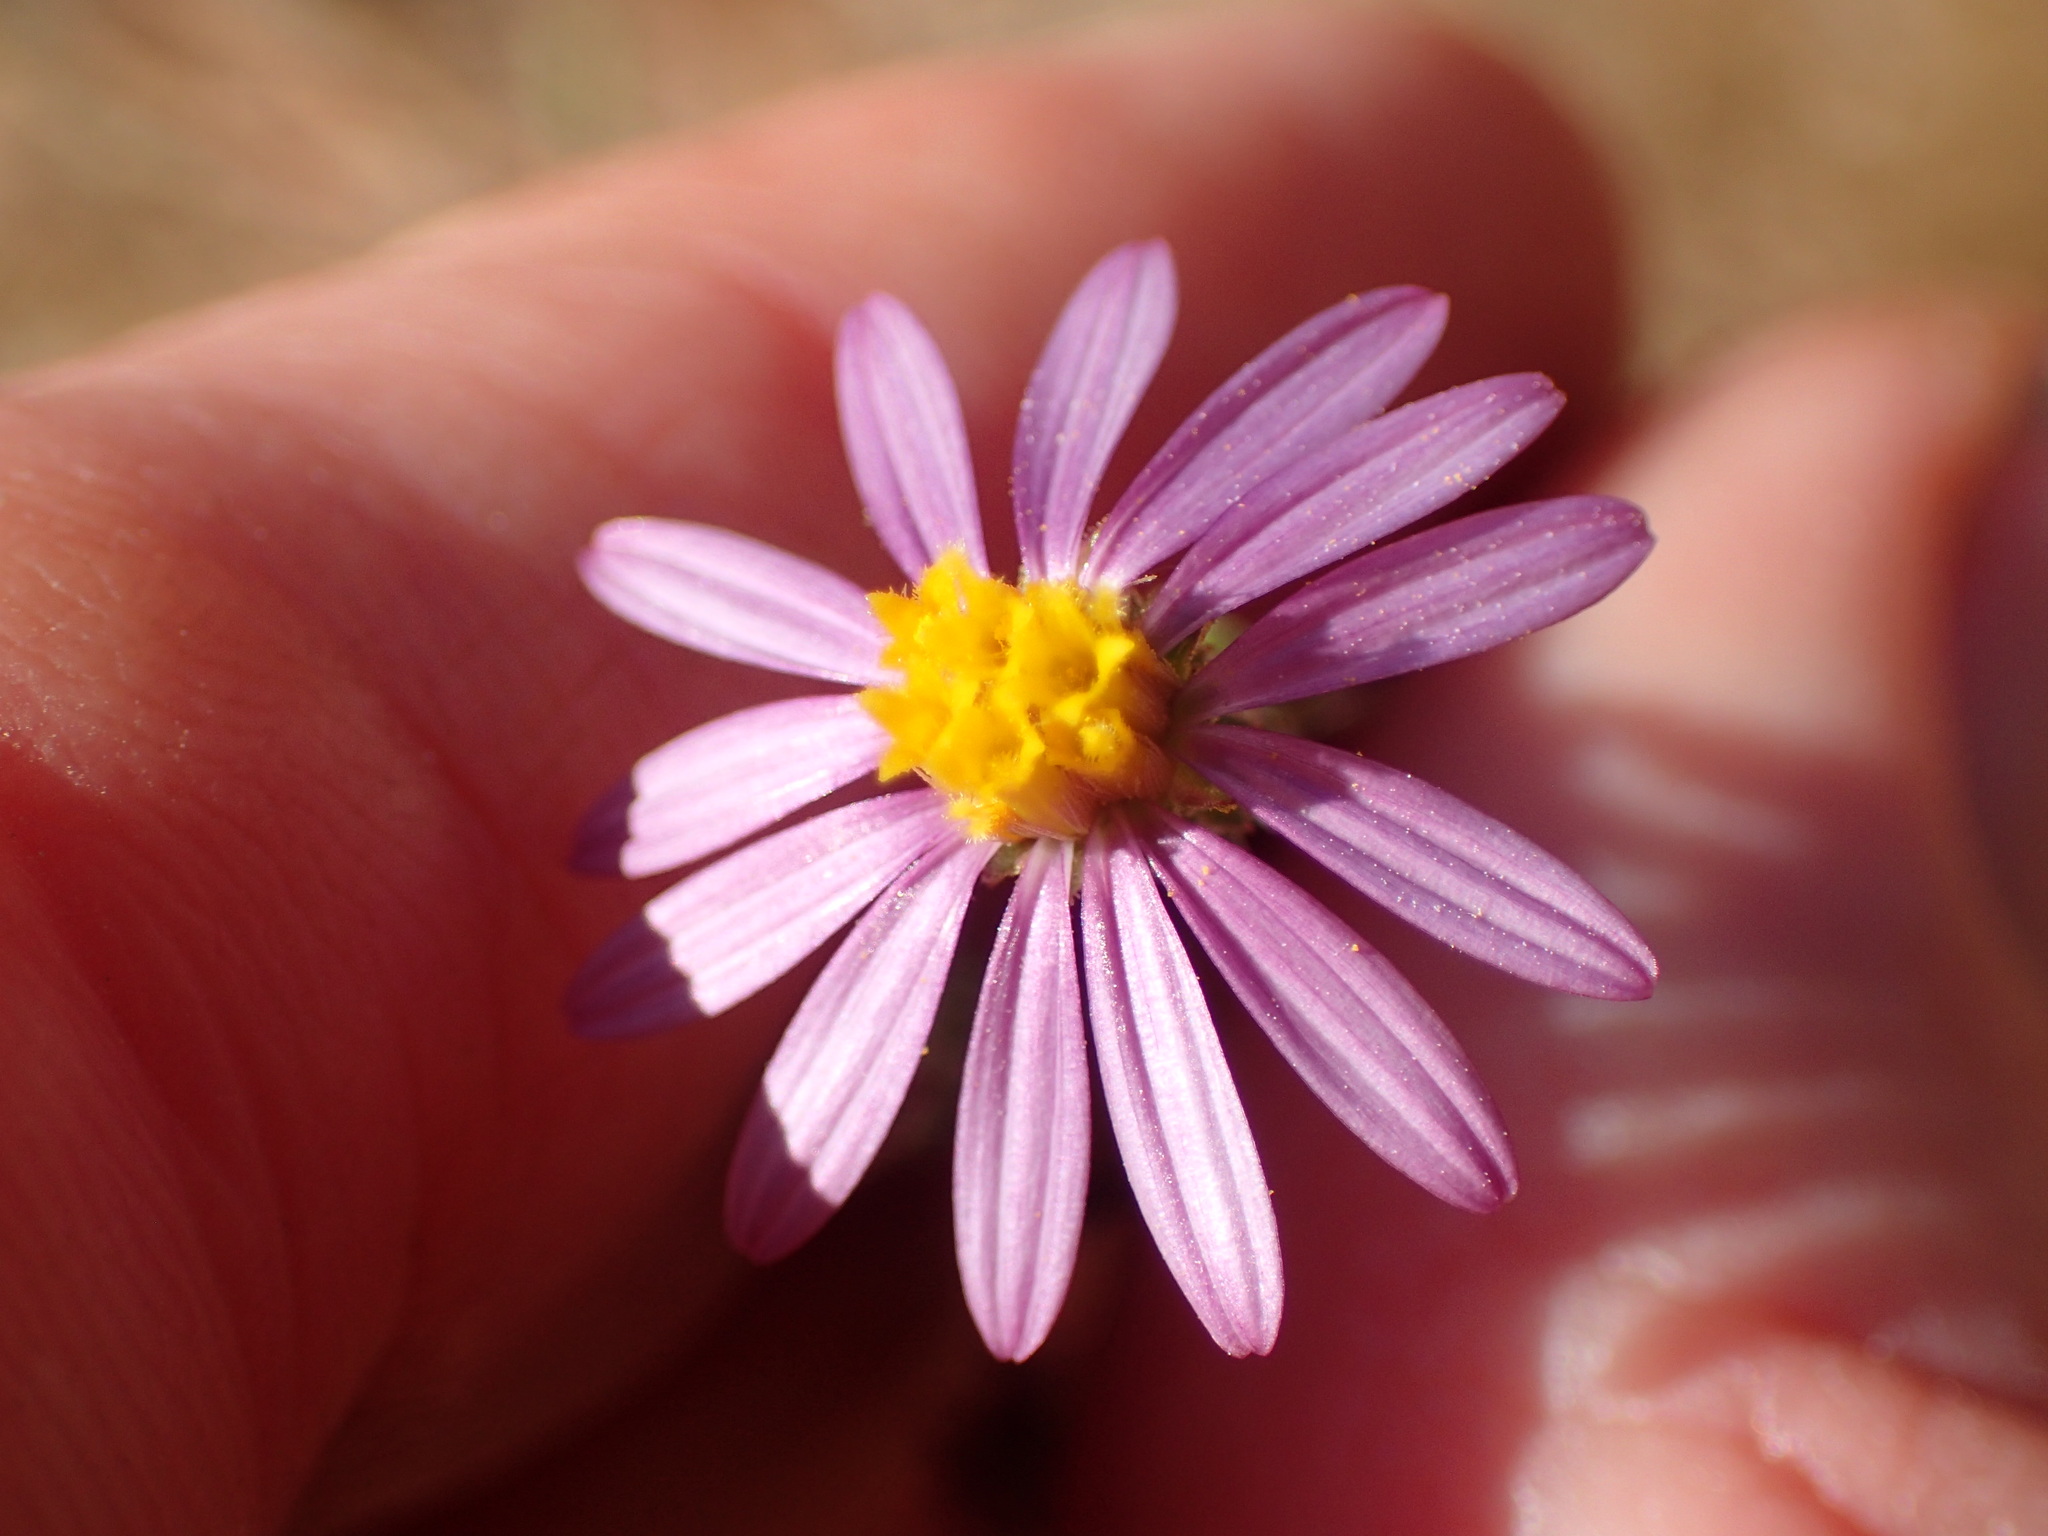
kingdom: Plantae
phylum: Tracheophyta
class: Magnoliopsida
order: Asterales
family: Asteraceae
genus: Corethrogyne
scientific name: Corethrogyne filaginifolia
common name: Sand-aster
